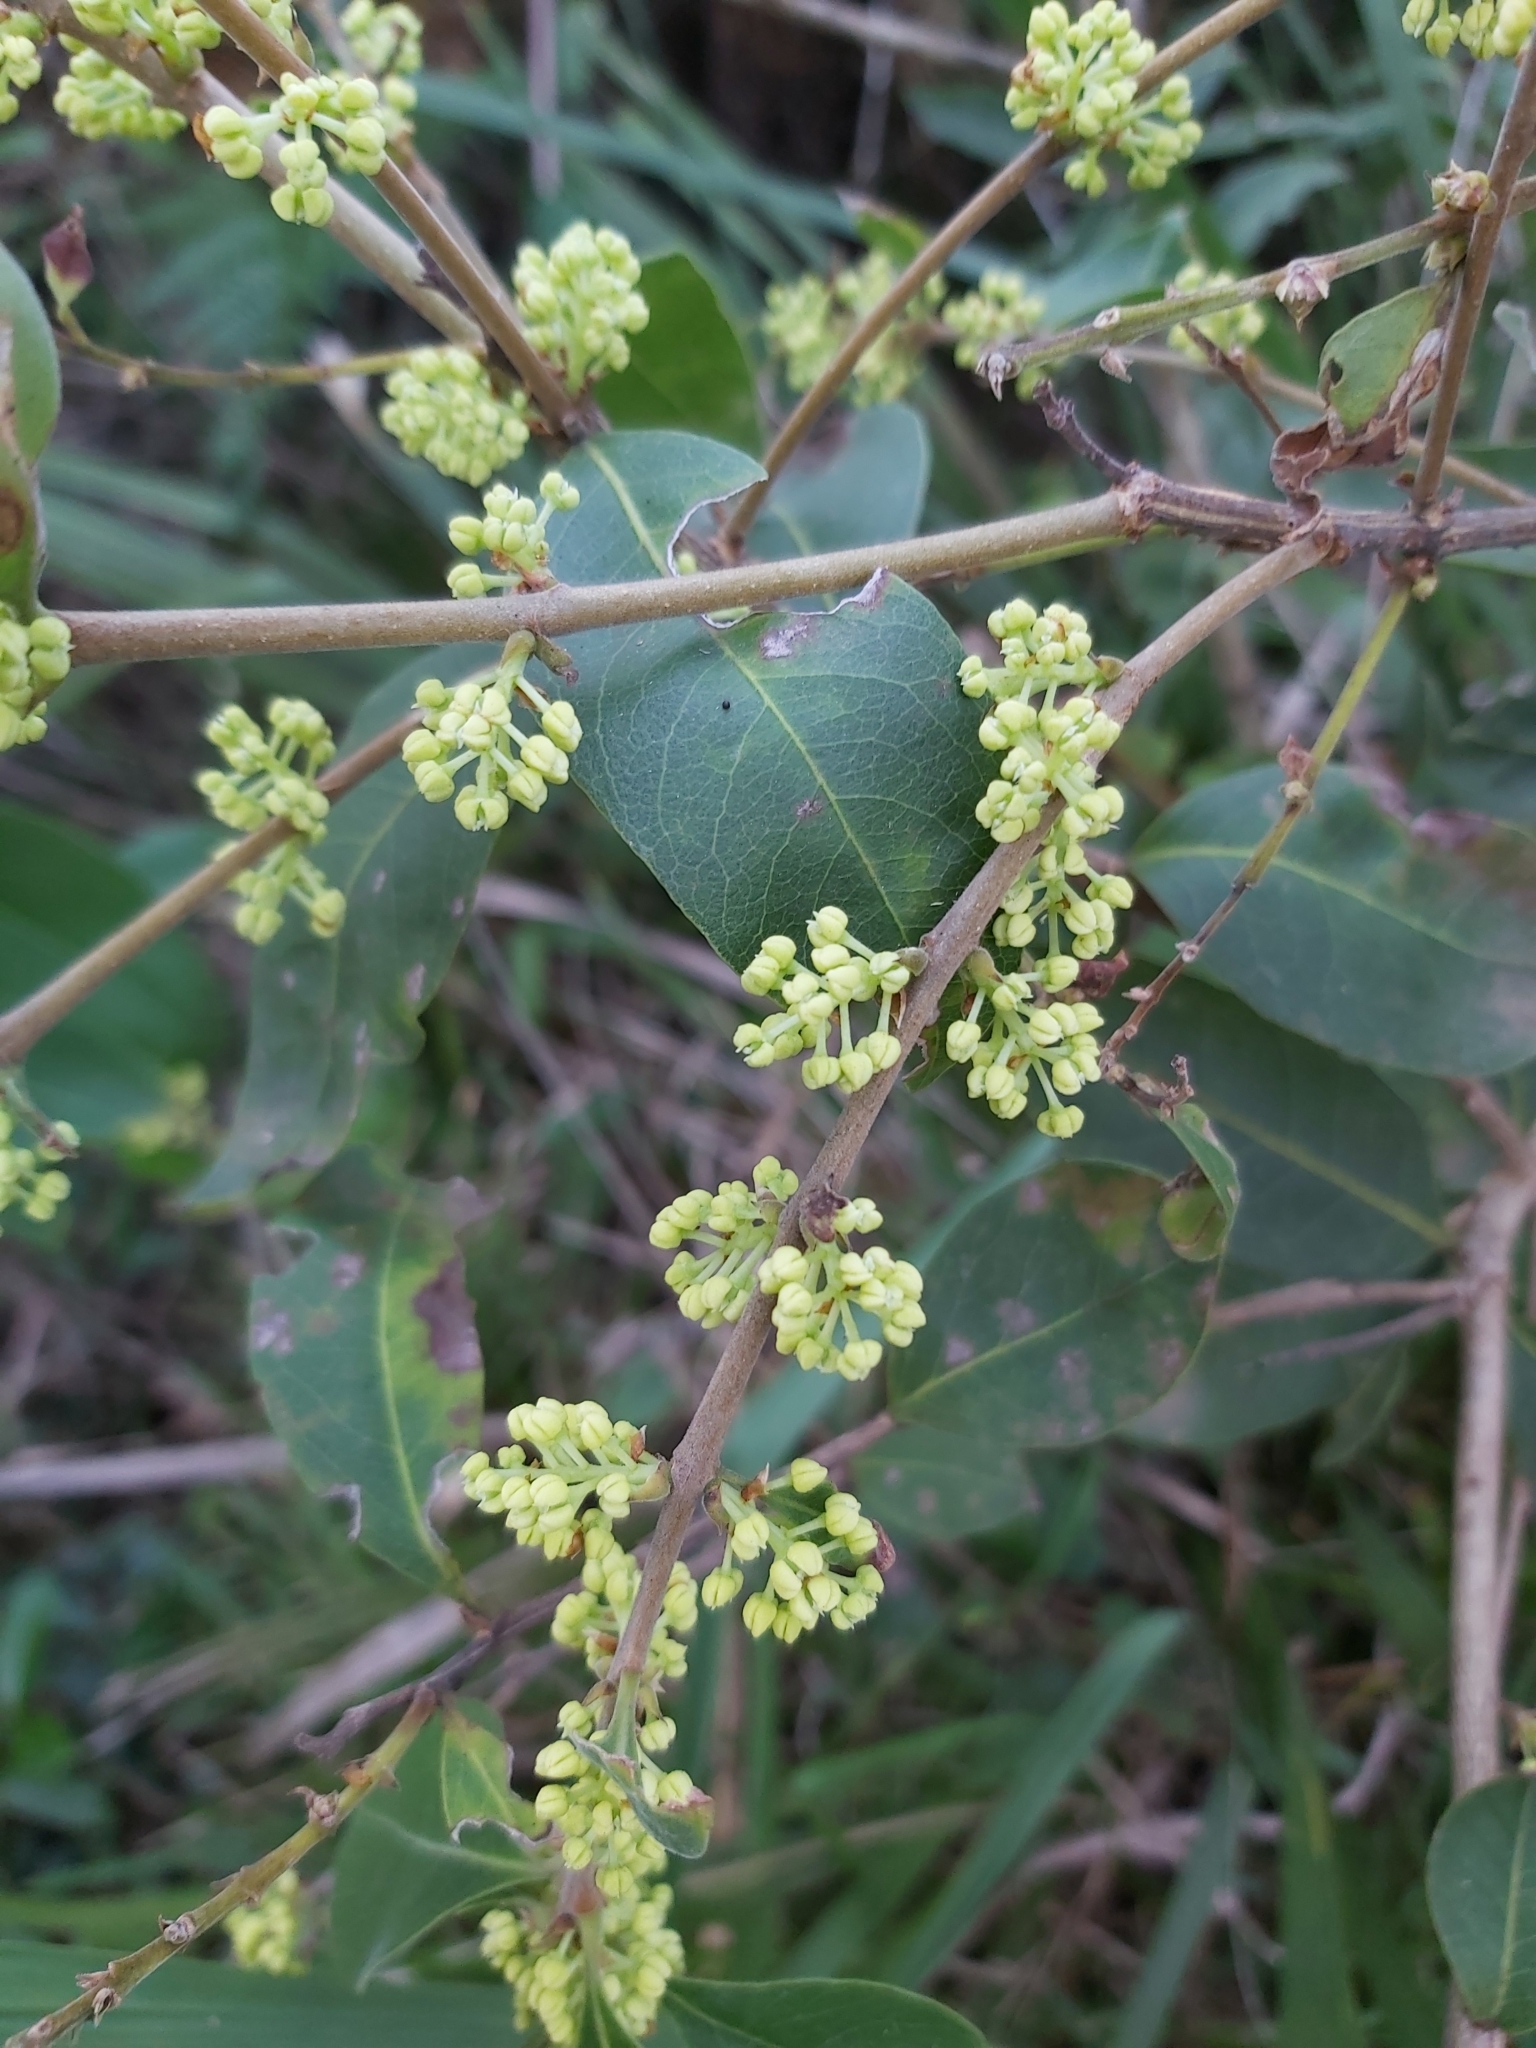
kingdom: Plantae
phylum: Tracheophyta
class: Magnoliopsida
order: Lamiales
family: Oleaceae
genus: Notelaea
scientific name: Notelaea longifolia
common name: Large mock olive
